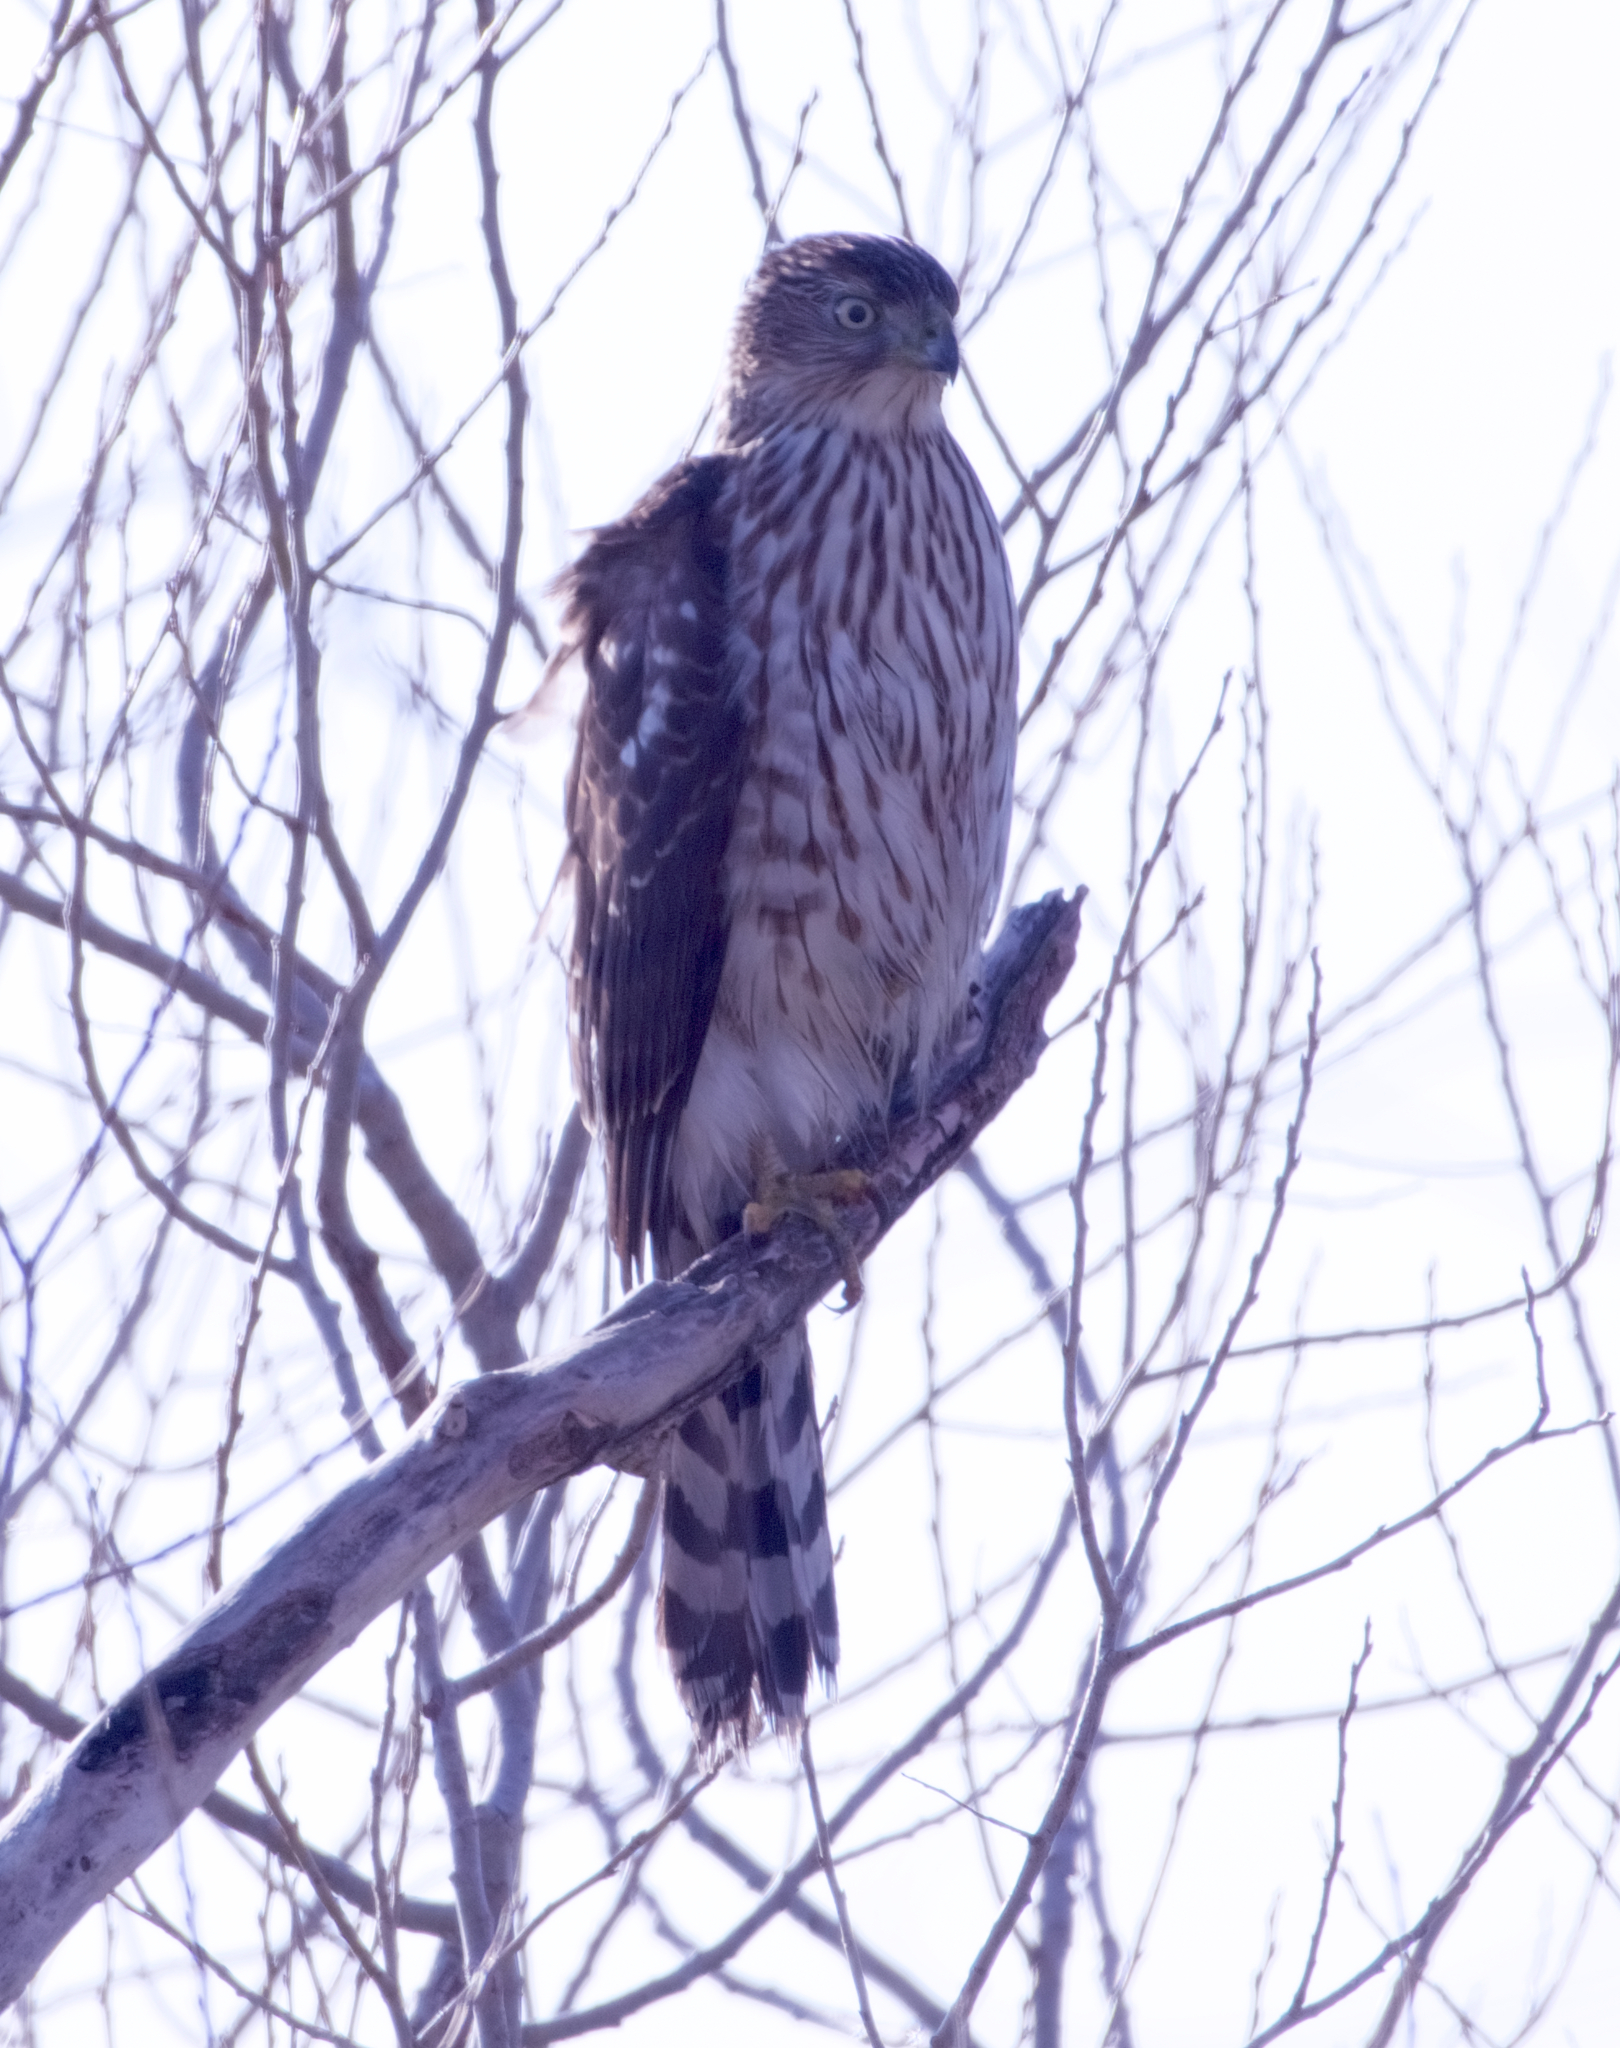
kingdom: Animalia
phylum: Chordata
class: Aves
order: Accipitriformes
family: Accipitridae
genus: Accipiter
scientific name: Accipiter cooperii
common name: Cooper's hawk
